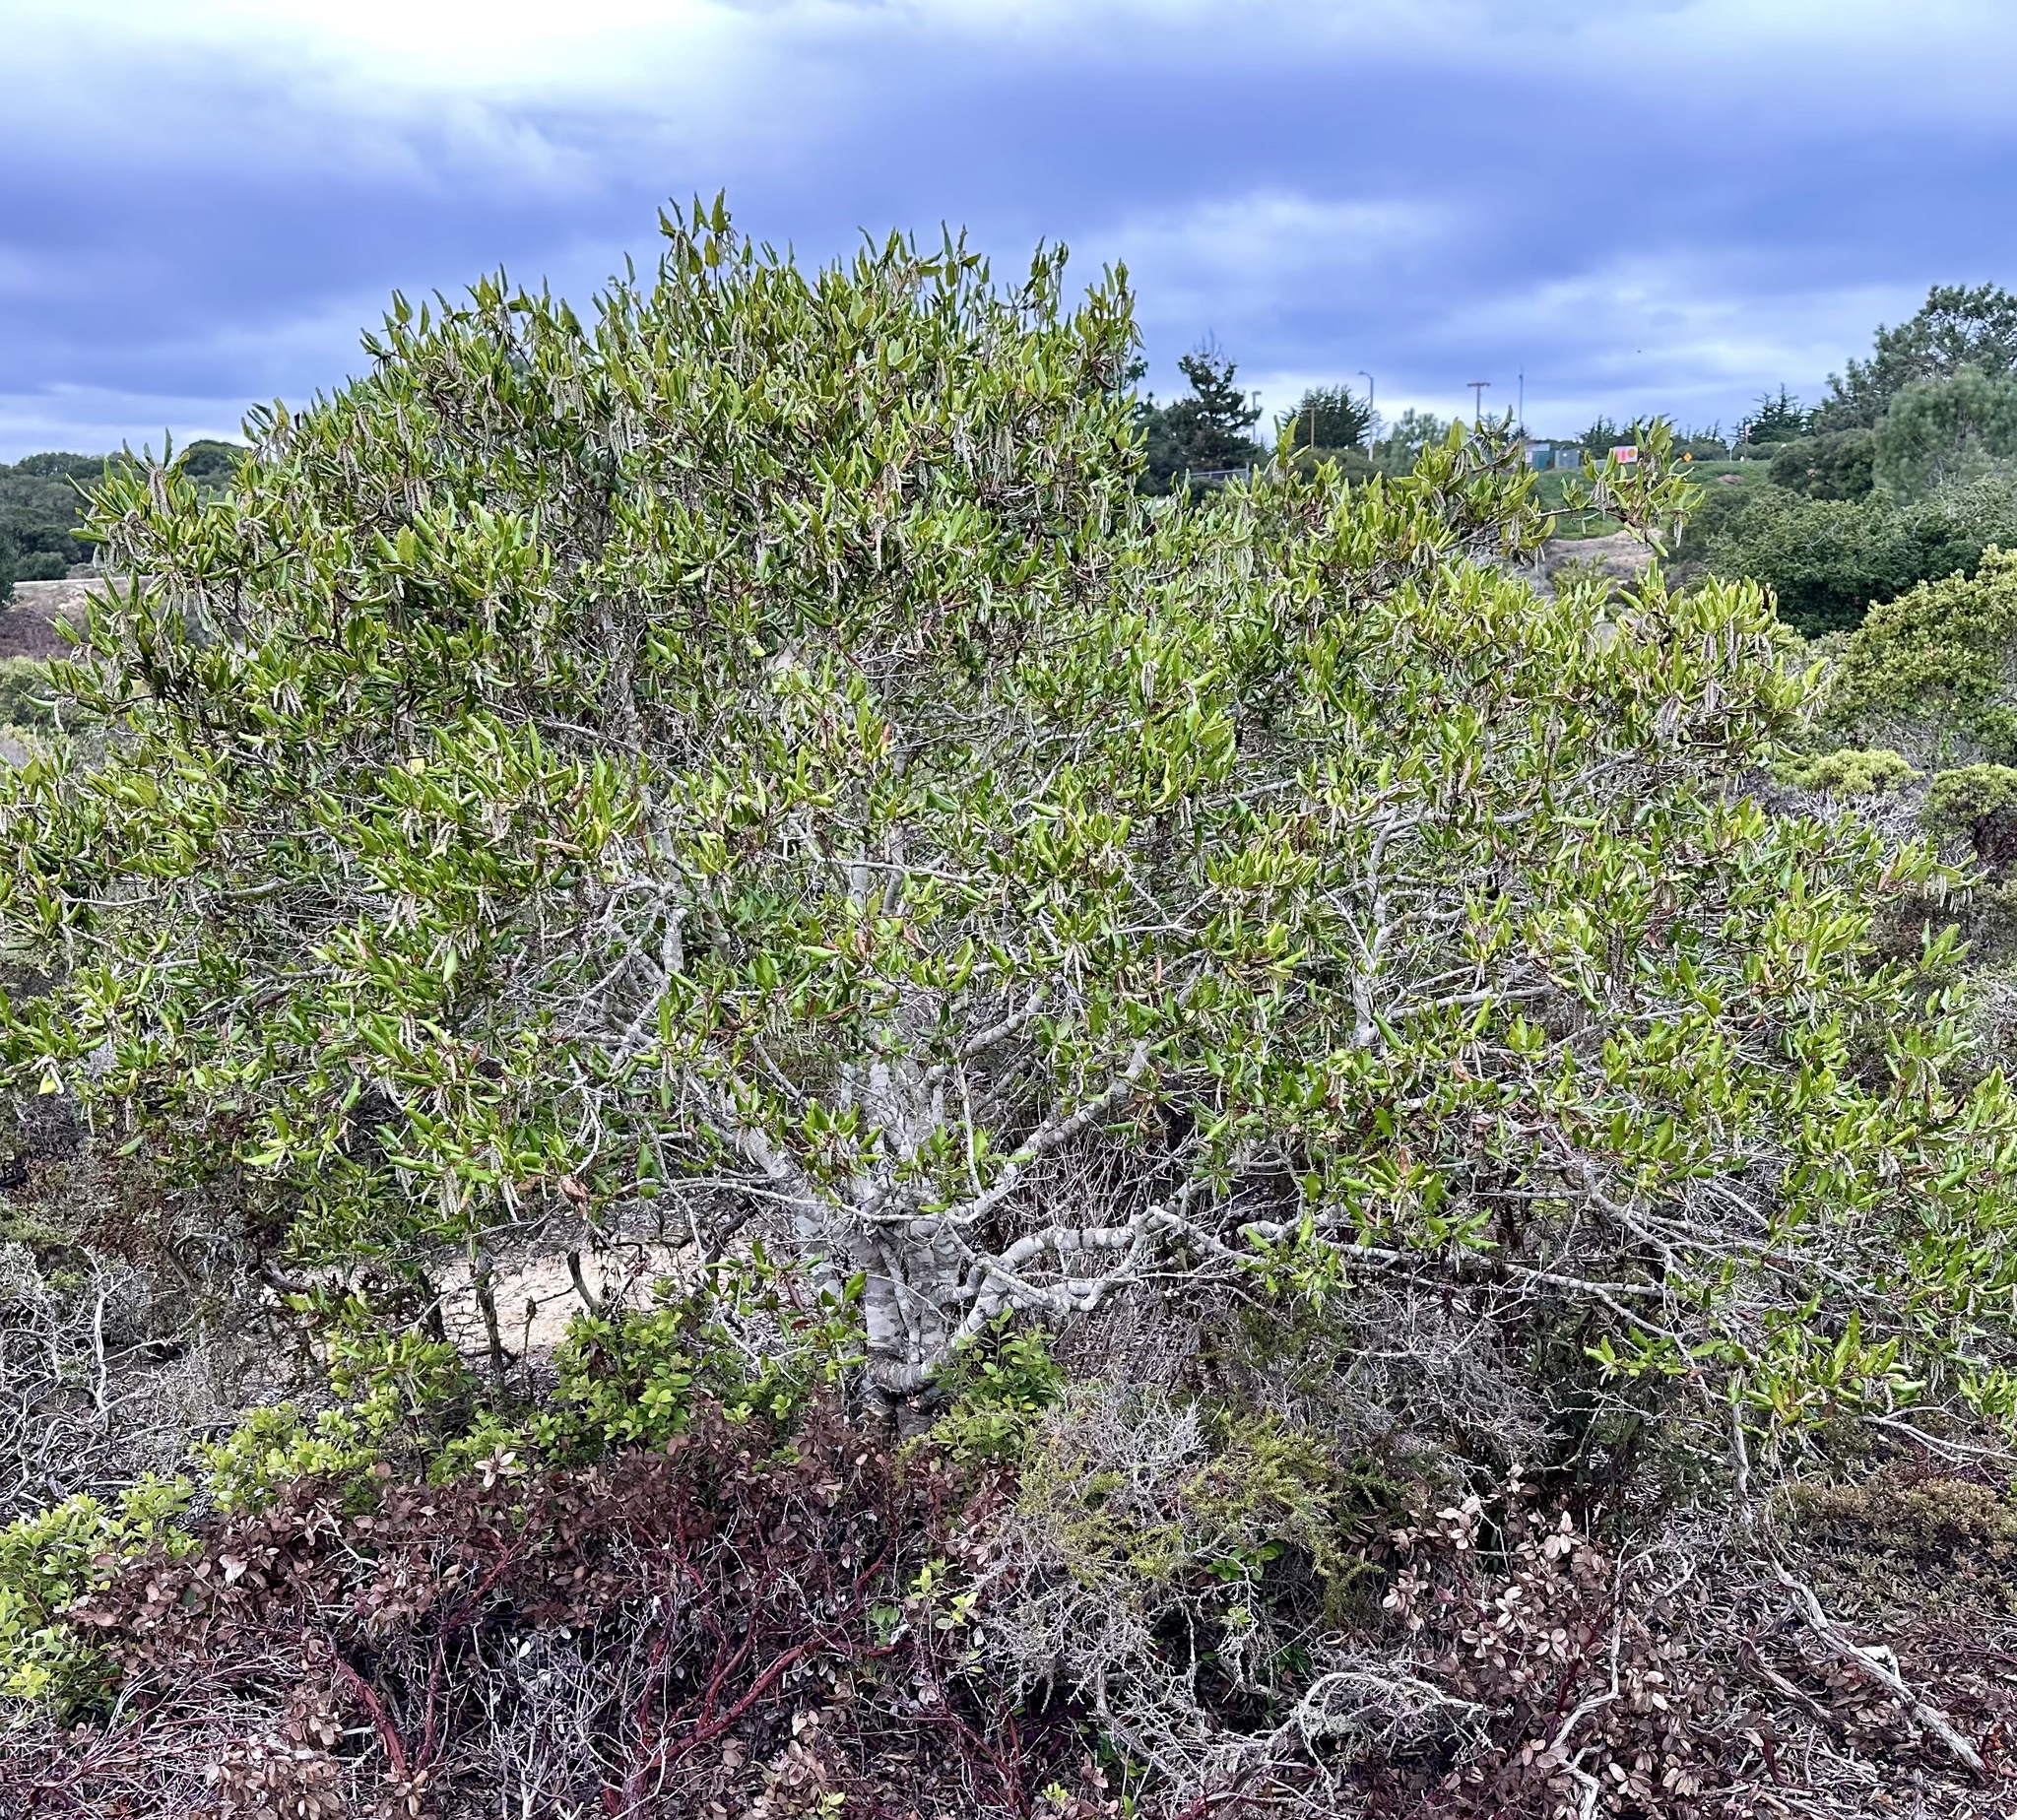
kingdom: Plantae
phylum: Tracheophyta
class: Magnoliopsida
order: Garryales
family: Garryaceae
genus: Garrya
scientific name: Garrya elliptica
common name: Silk-tassel
